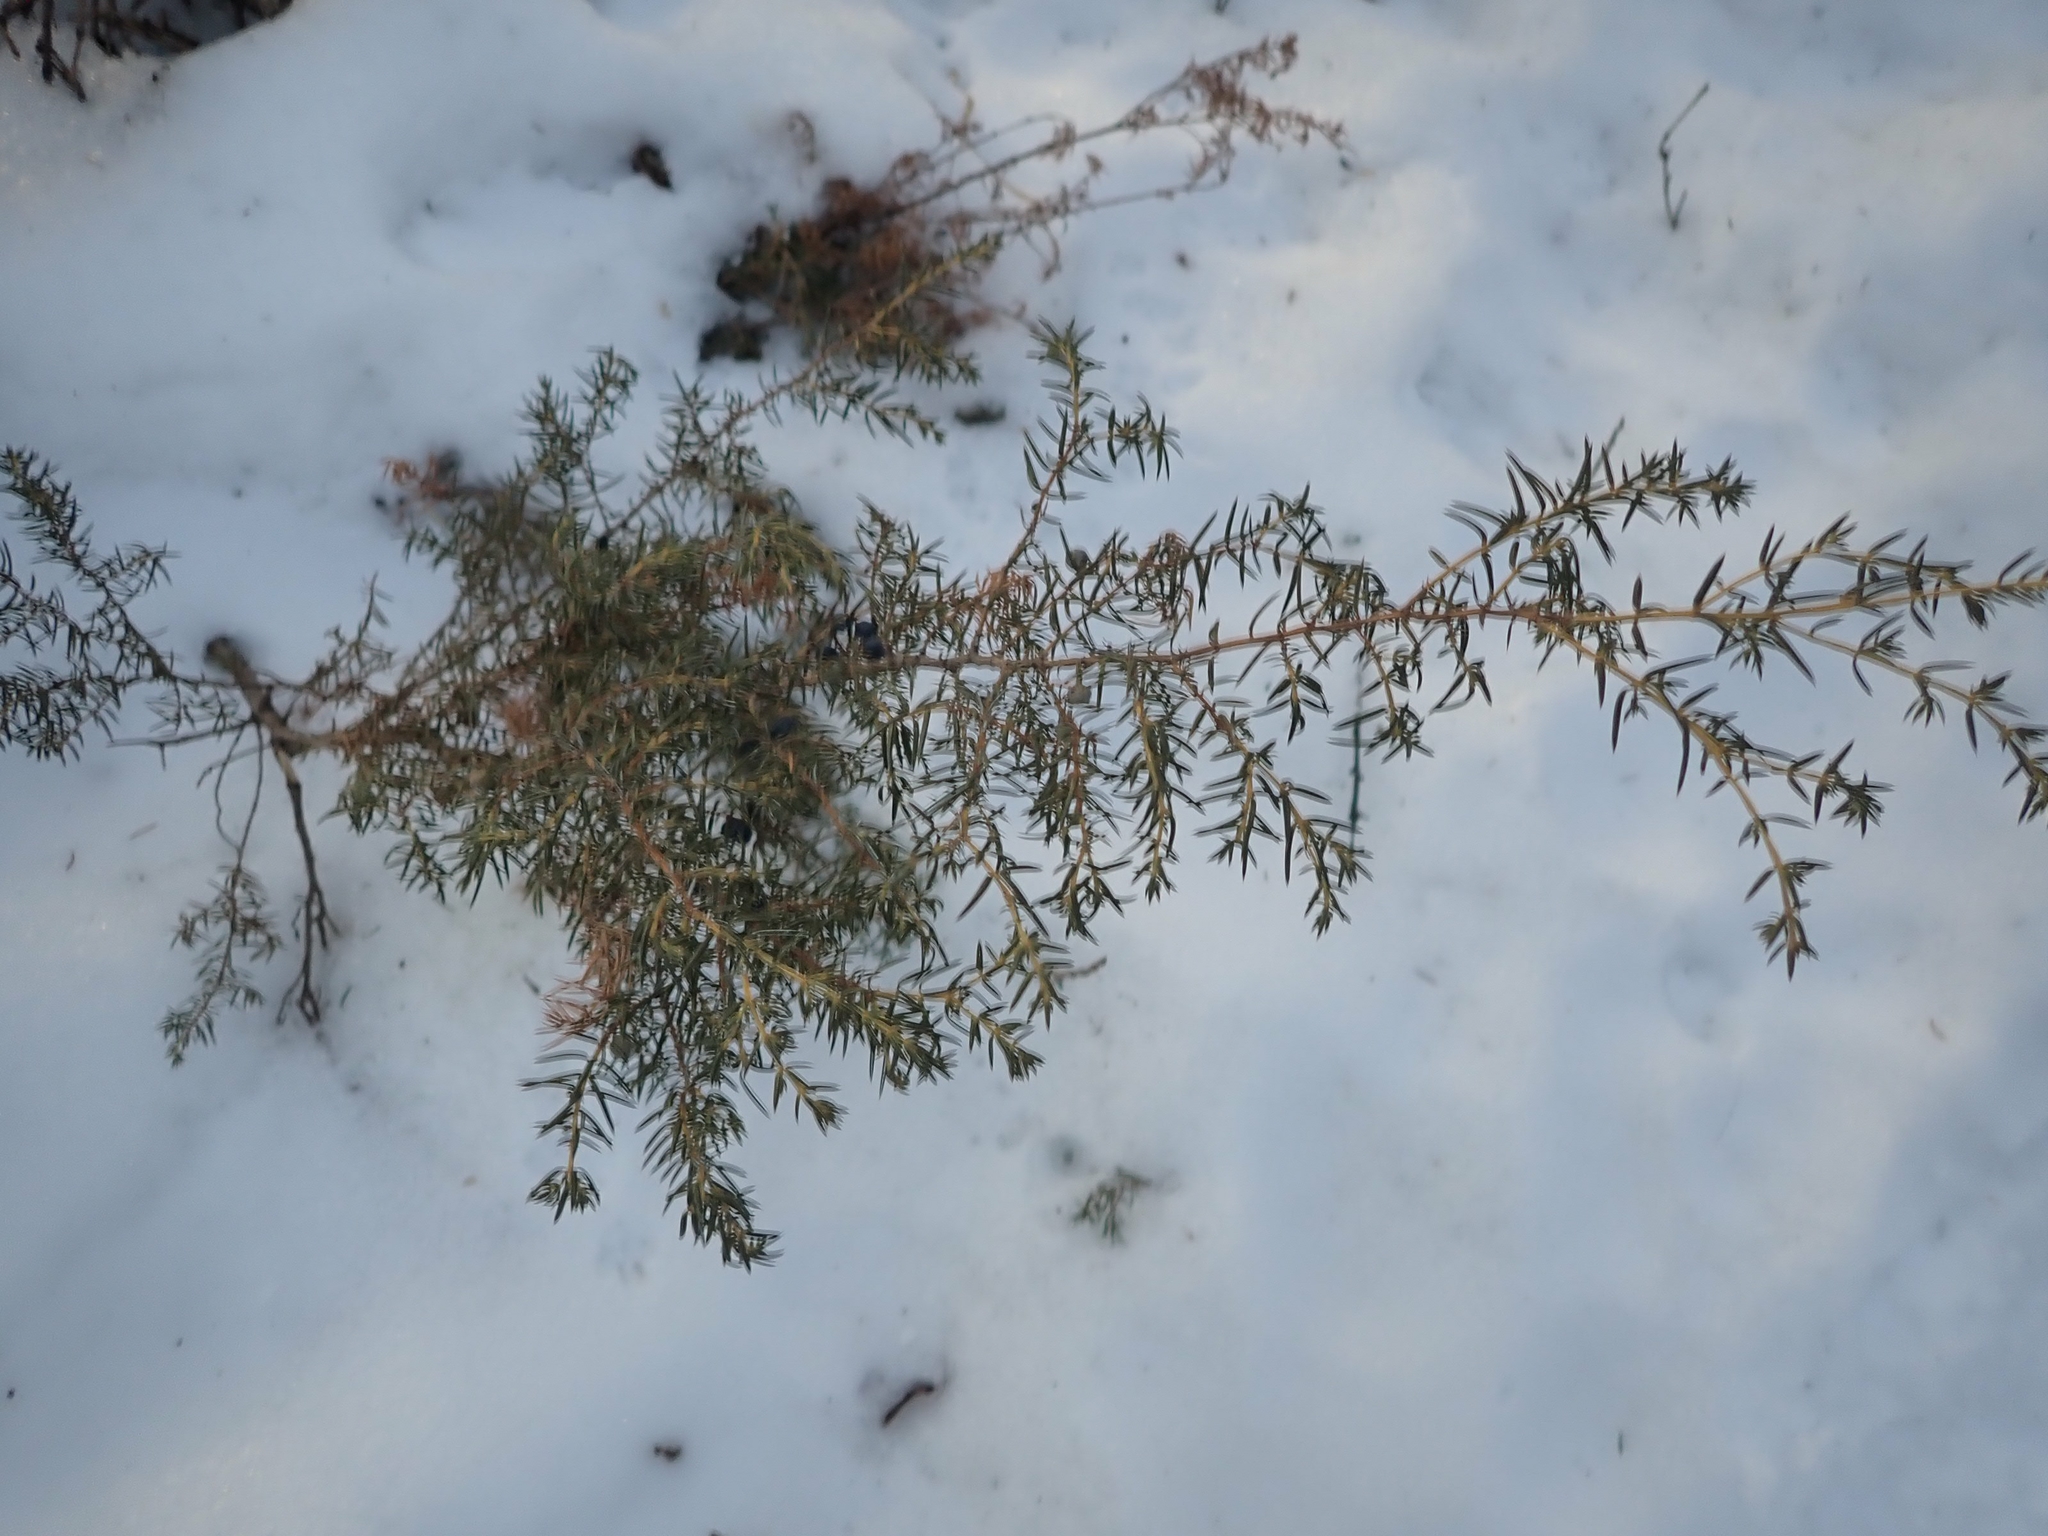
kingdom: Plantae
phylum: Tracheophyta
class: Pinopsida
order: Pinales
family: Cupressaceae
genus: Juniperus
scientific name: Juniperus communis
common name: Common juniper
